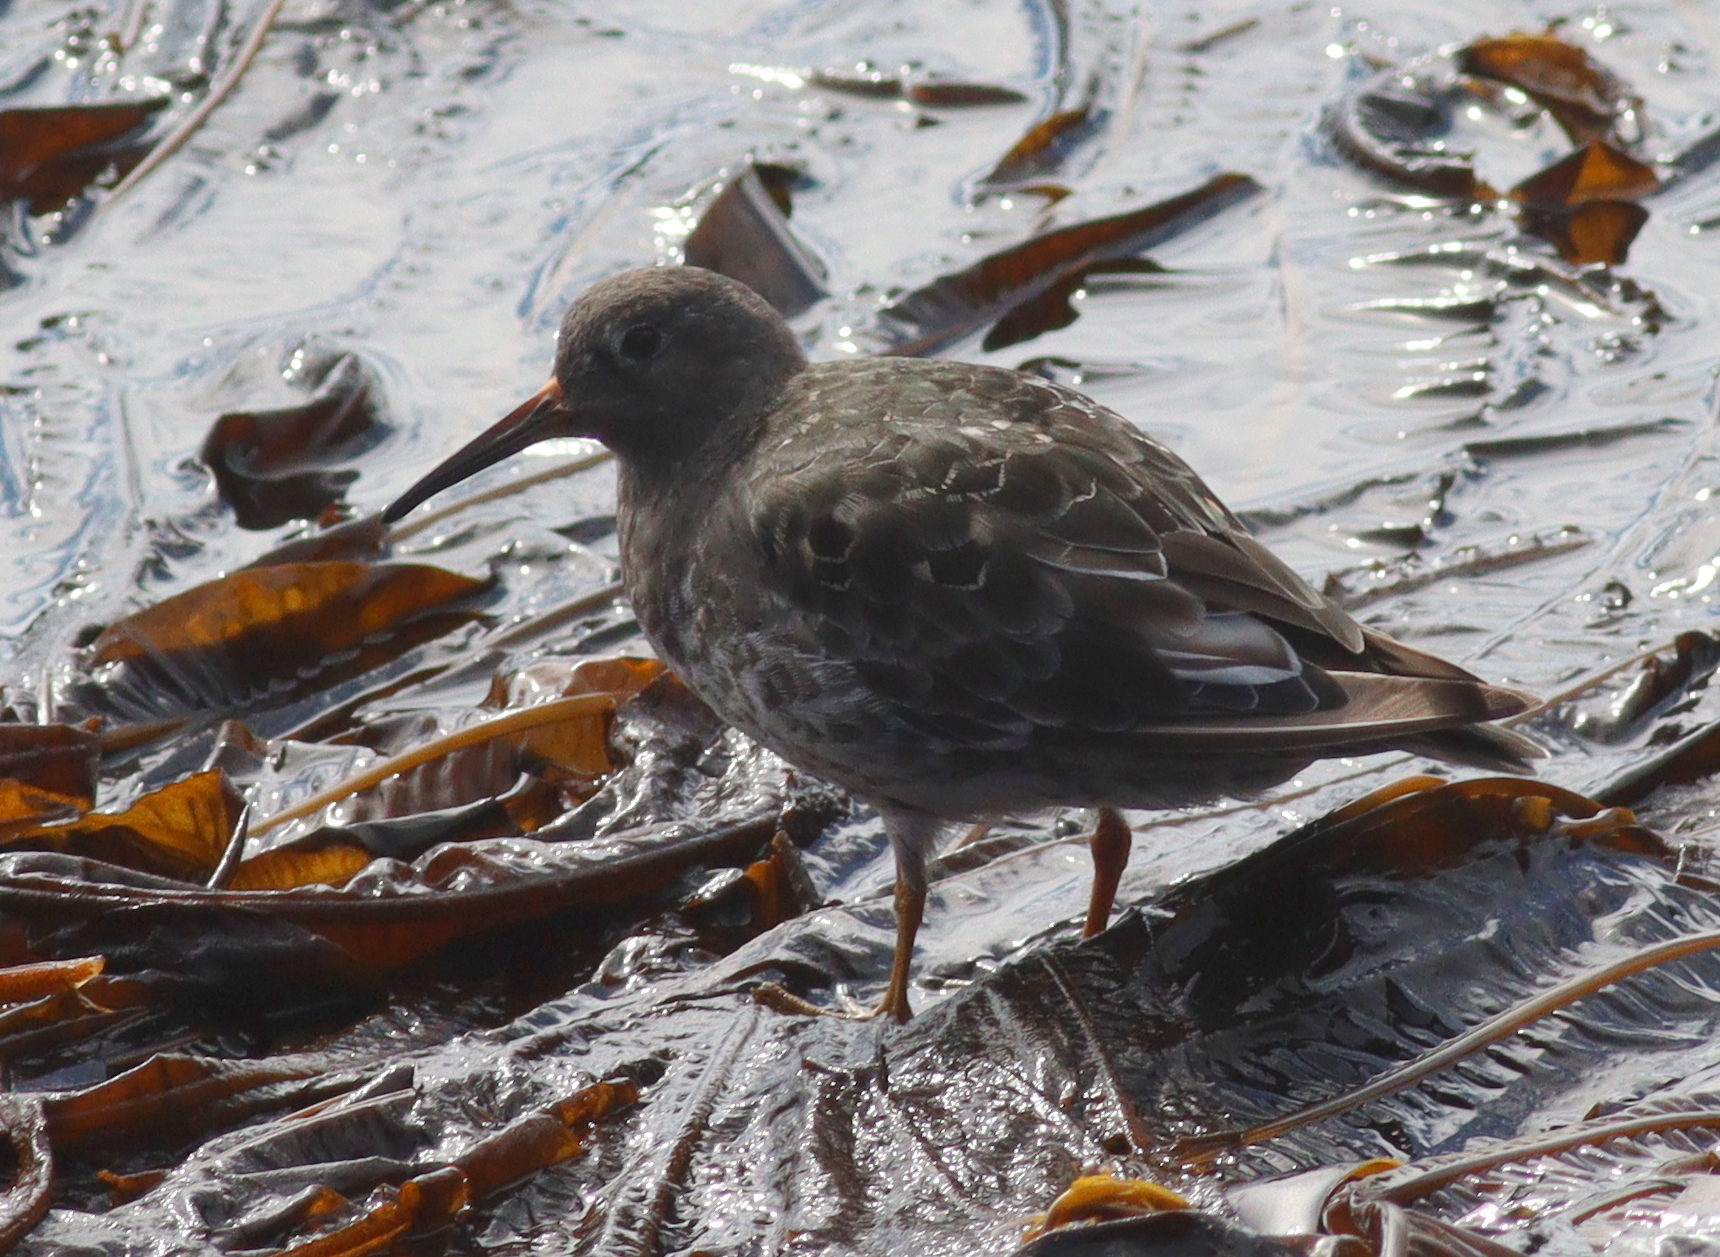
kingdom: Animalia
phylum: Chordata
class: Aves
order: Charadriiformes
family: Scolopacidae
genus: Calidris
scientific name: Calidris maritima
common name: Purple sandpiper
